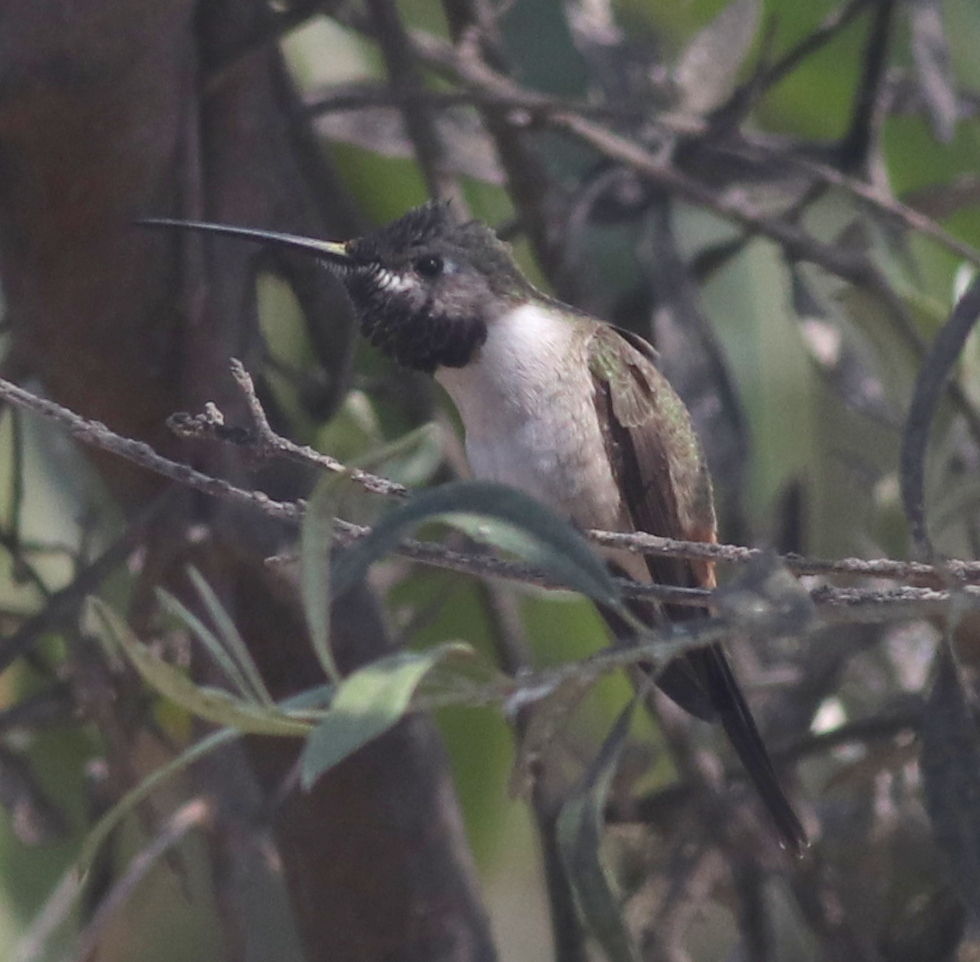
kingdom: Animalia
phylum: Chordata
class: Aves
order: Apodiformes
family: Trochilidae
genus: Rhodopis
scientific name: Rhodopis vesper
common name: Oasis hummingbird
